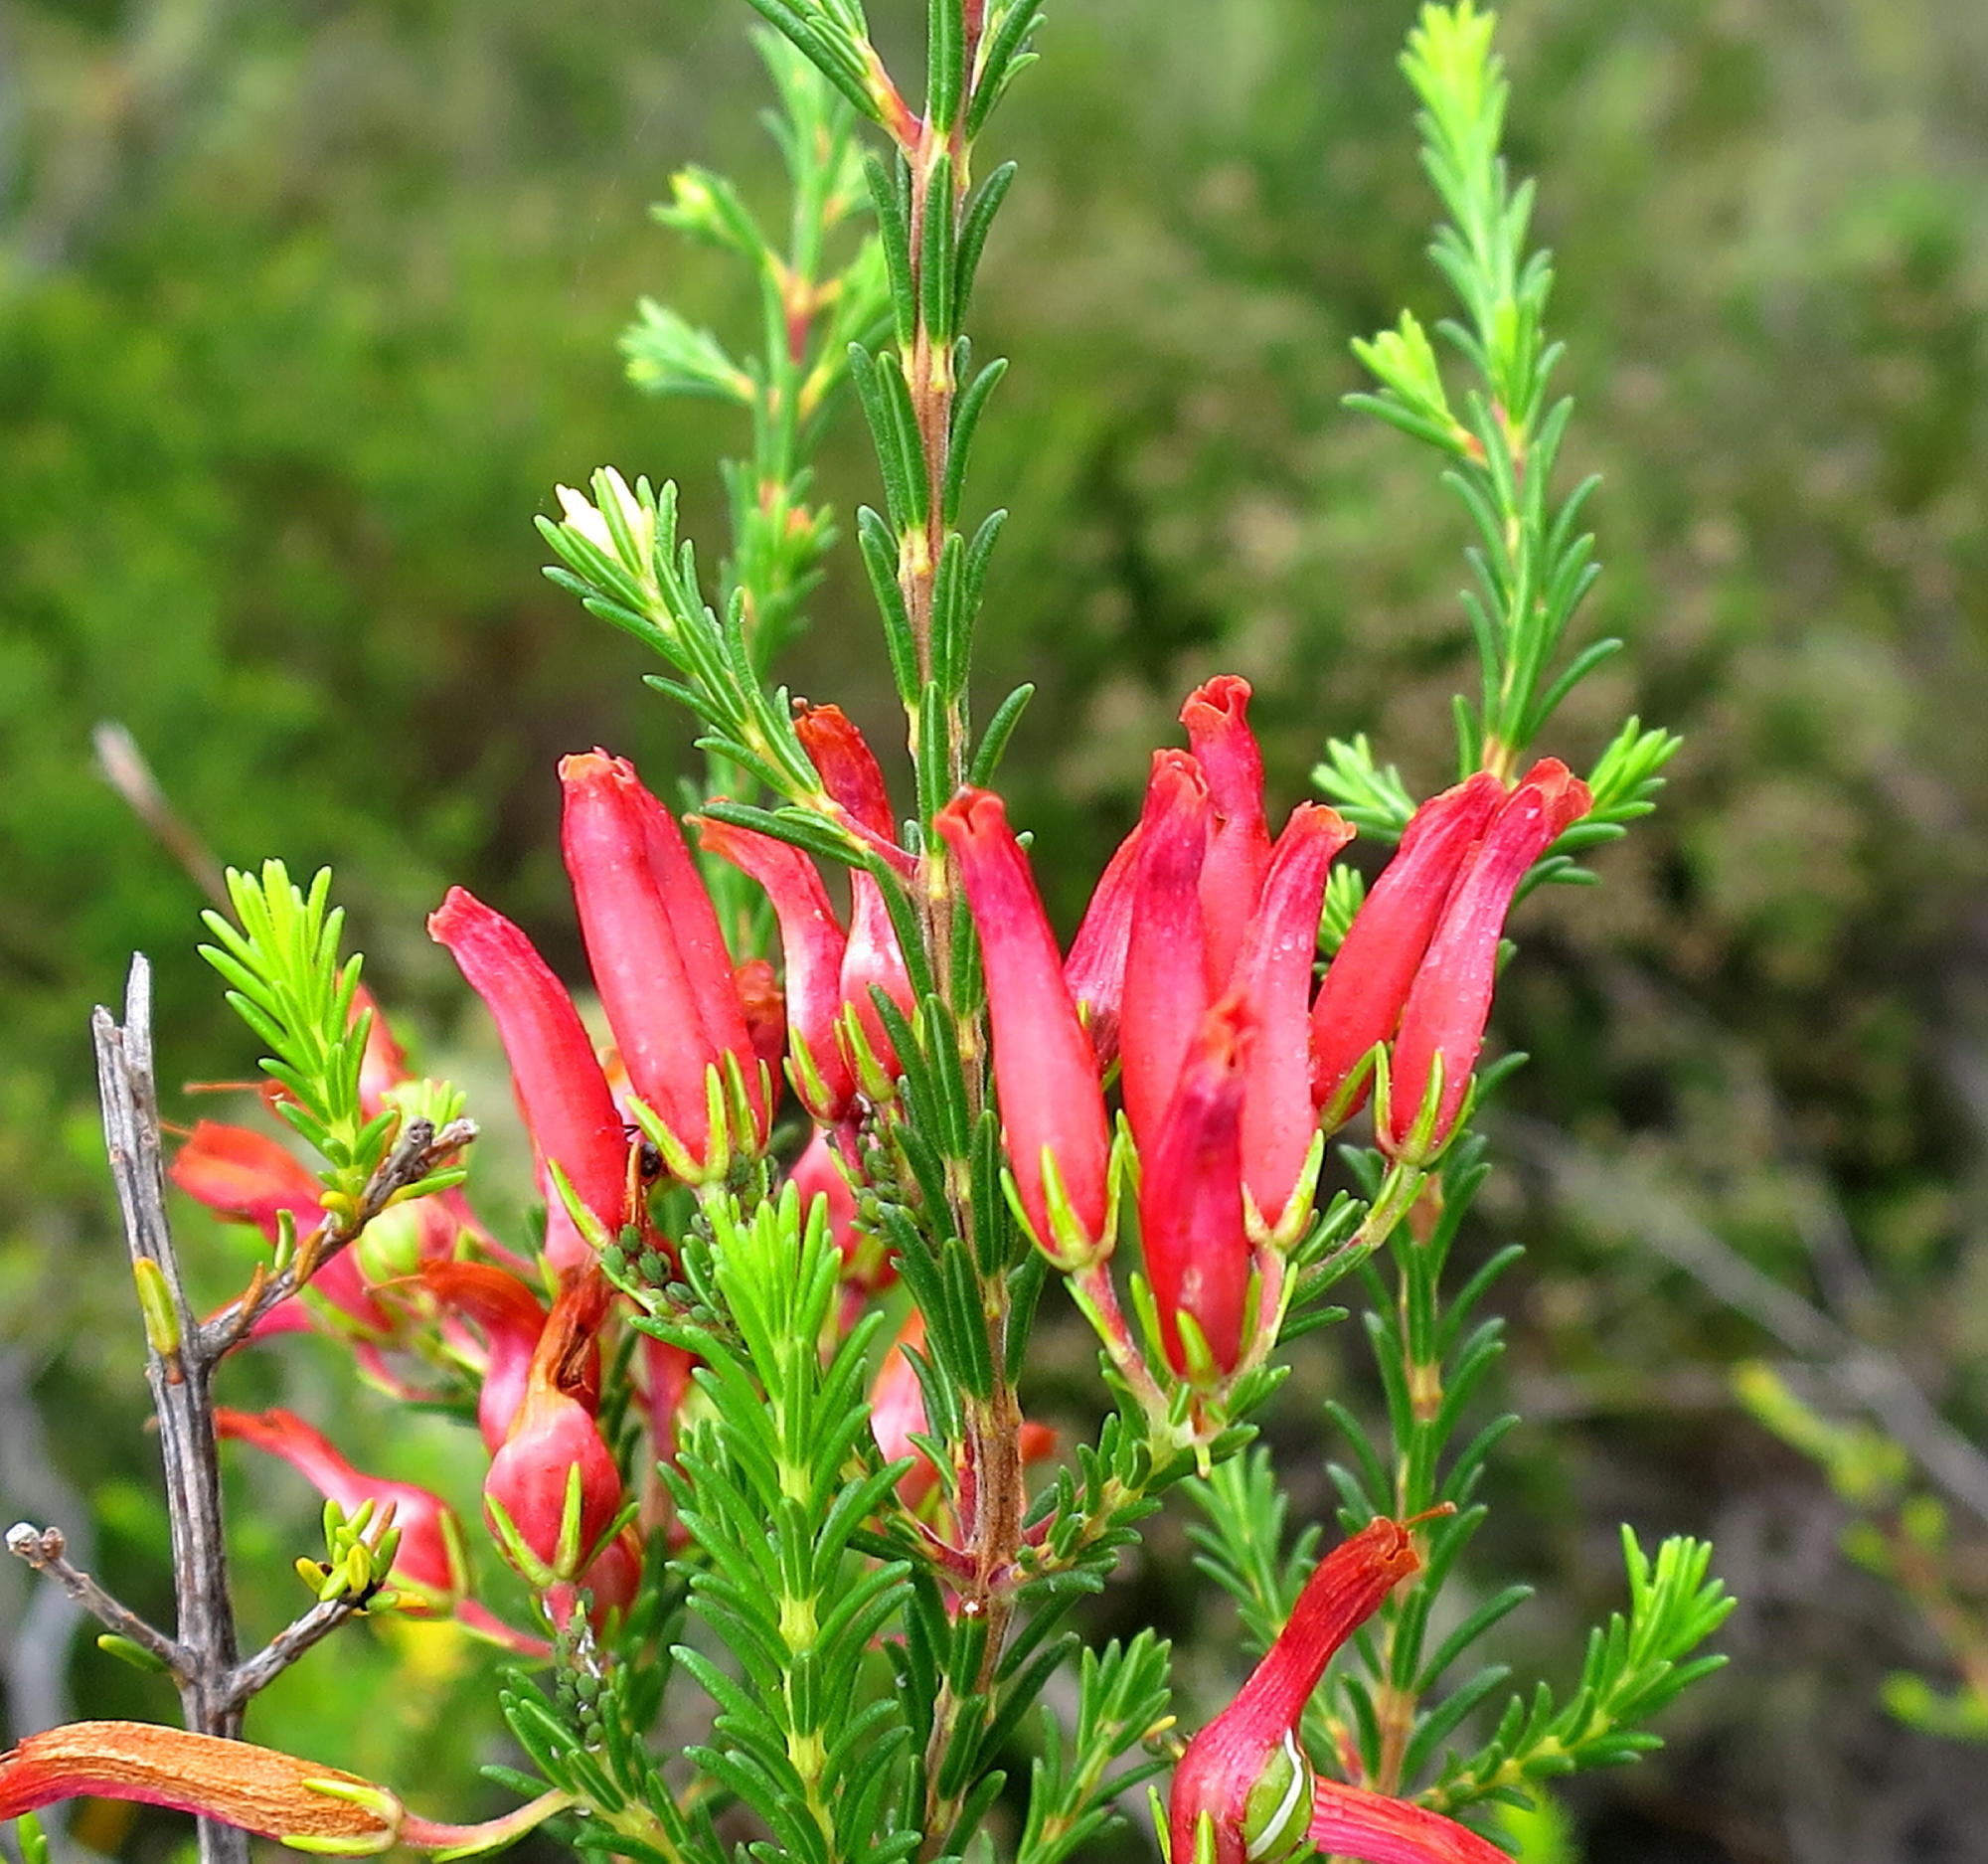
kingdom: Plantae
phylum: Tracheophyta
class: Magnoliopsida
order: Ericales
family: Ericaceae
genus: Erica
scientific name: Erica chloroloma
